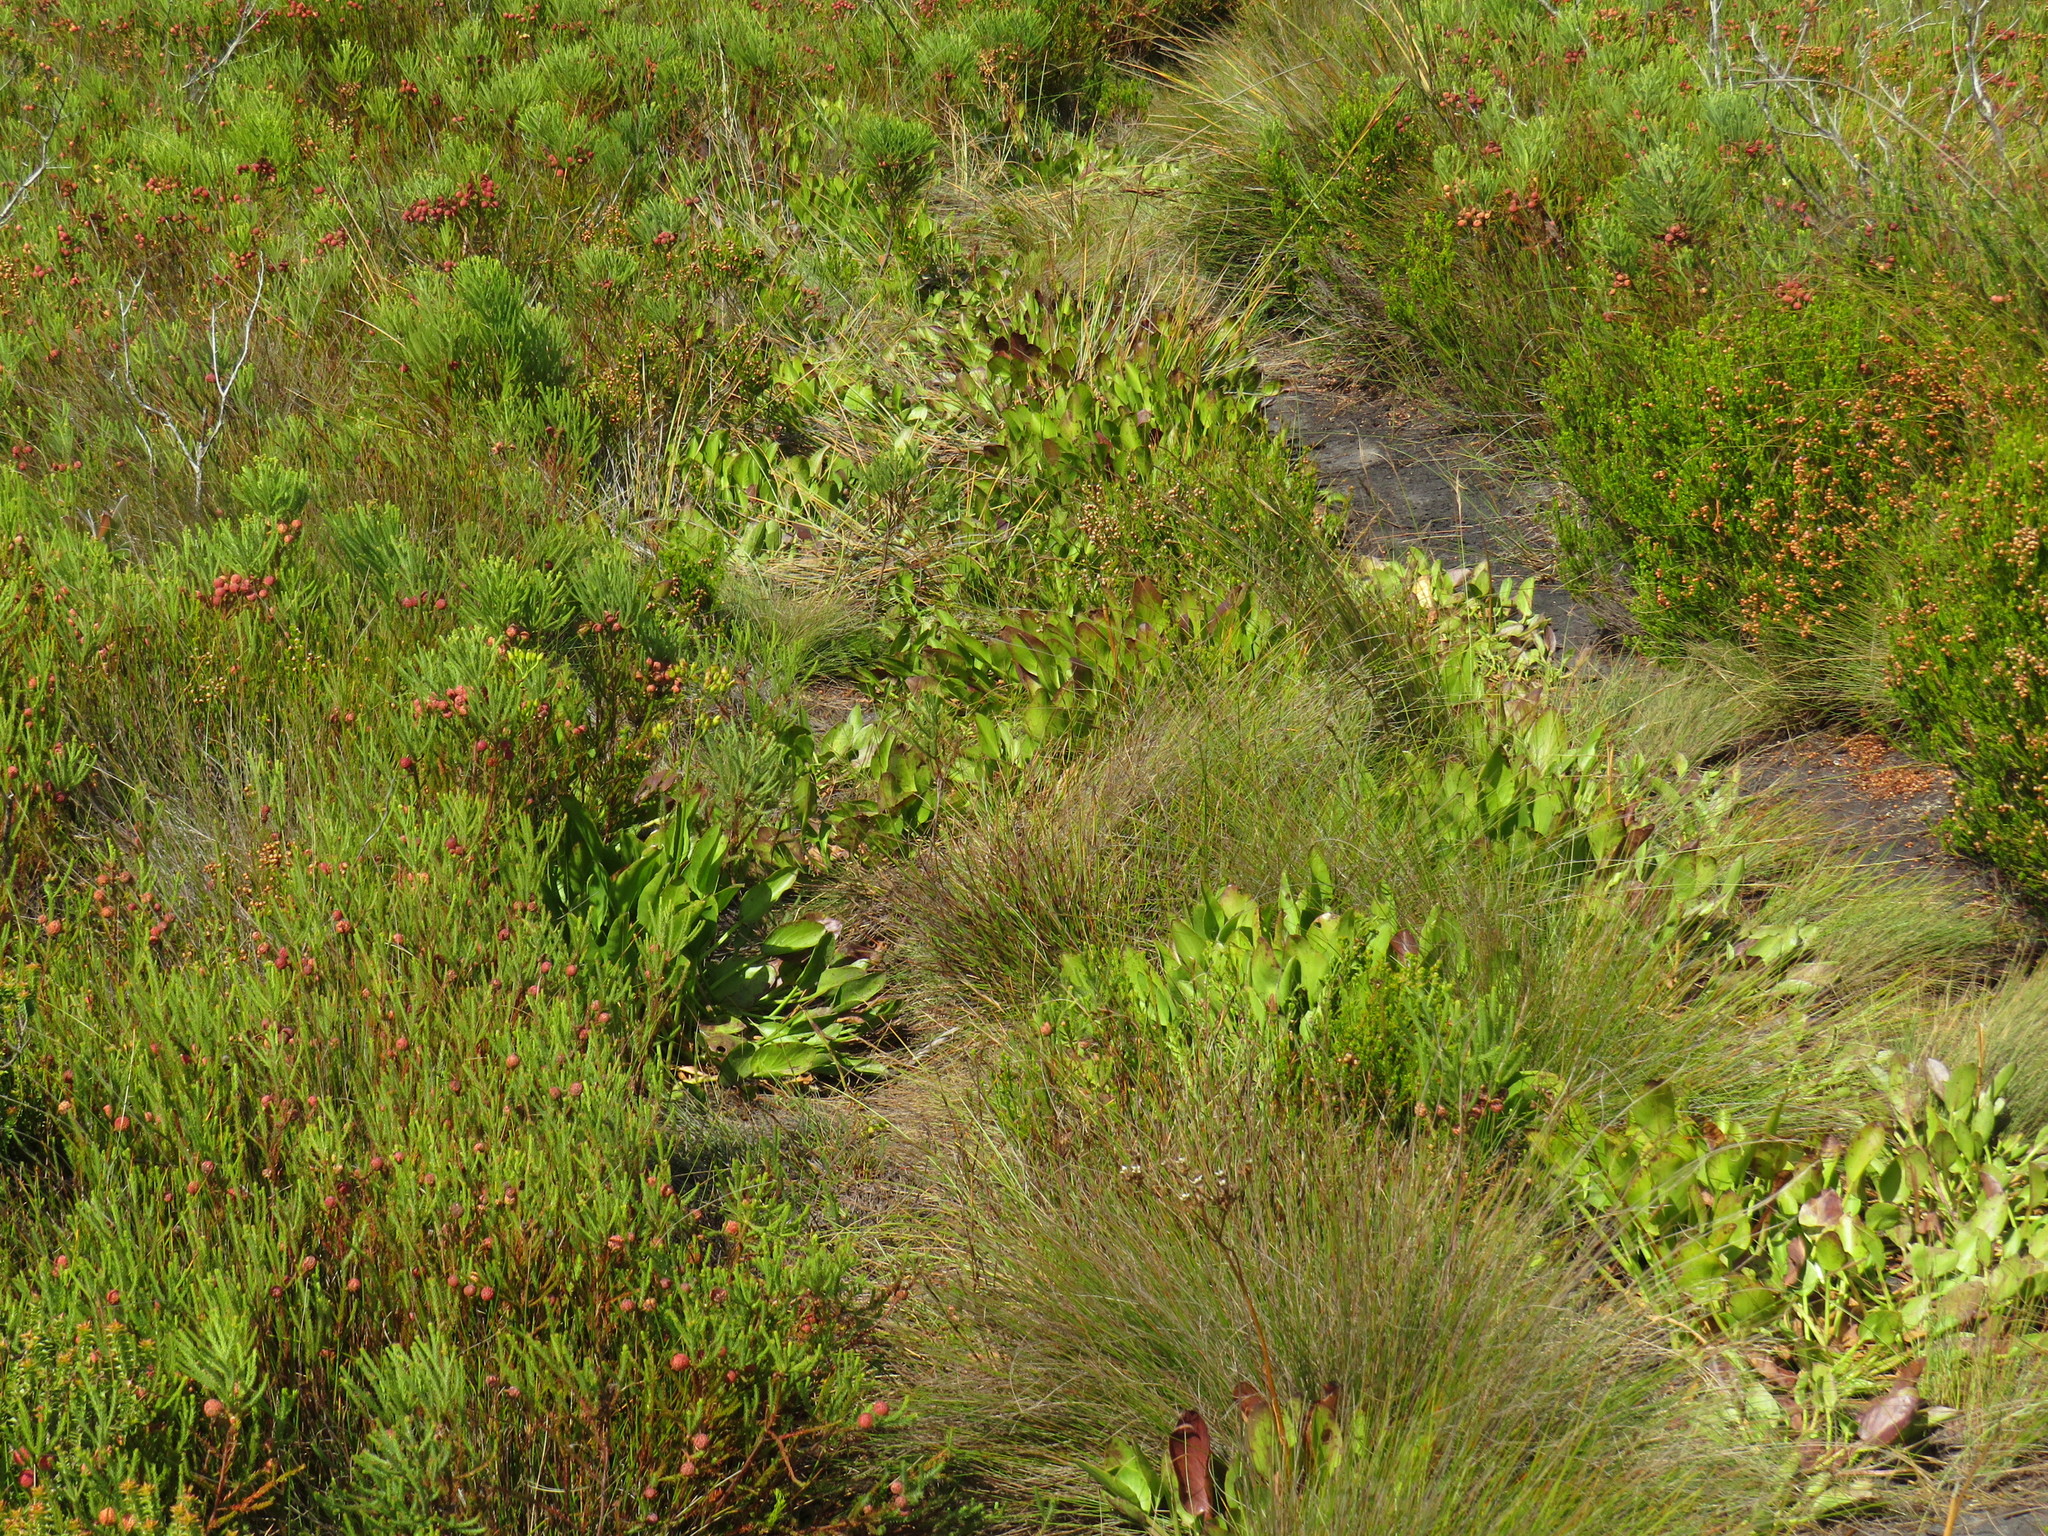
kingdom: Plantae
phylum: Tracheophyta
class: Magnoliopsida
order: Asterales
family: Menyanthaceae
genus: Villarsia
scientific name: Villarsia goldblattiana
